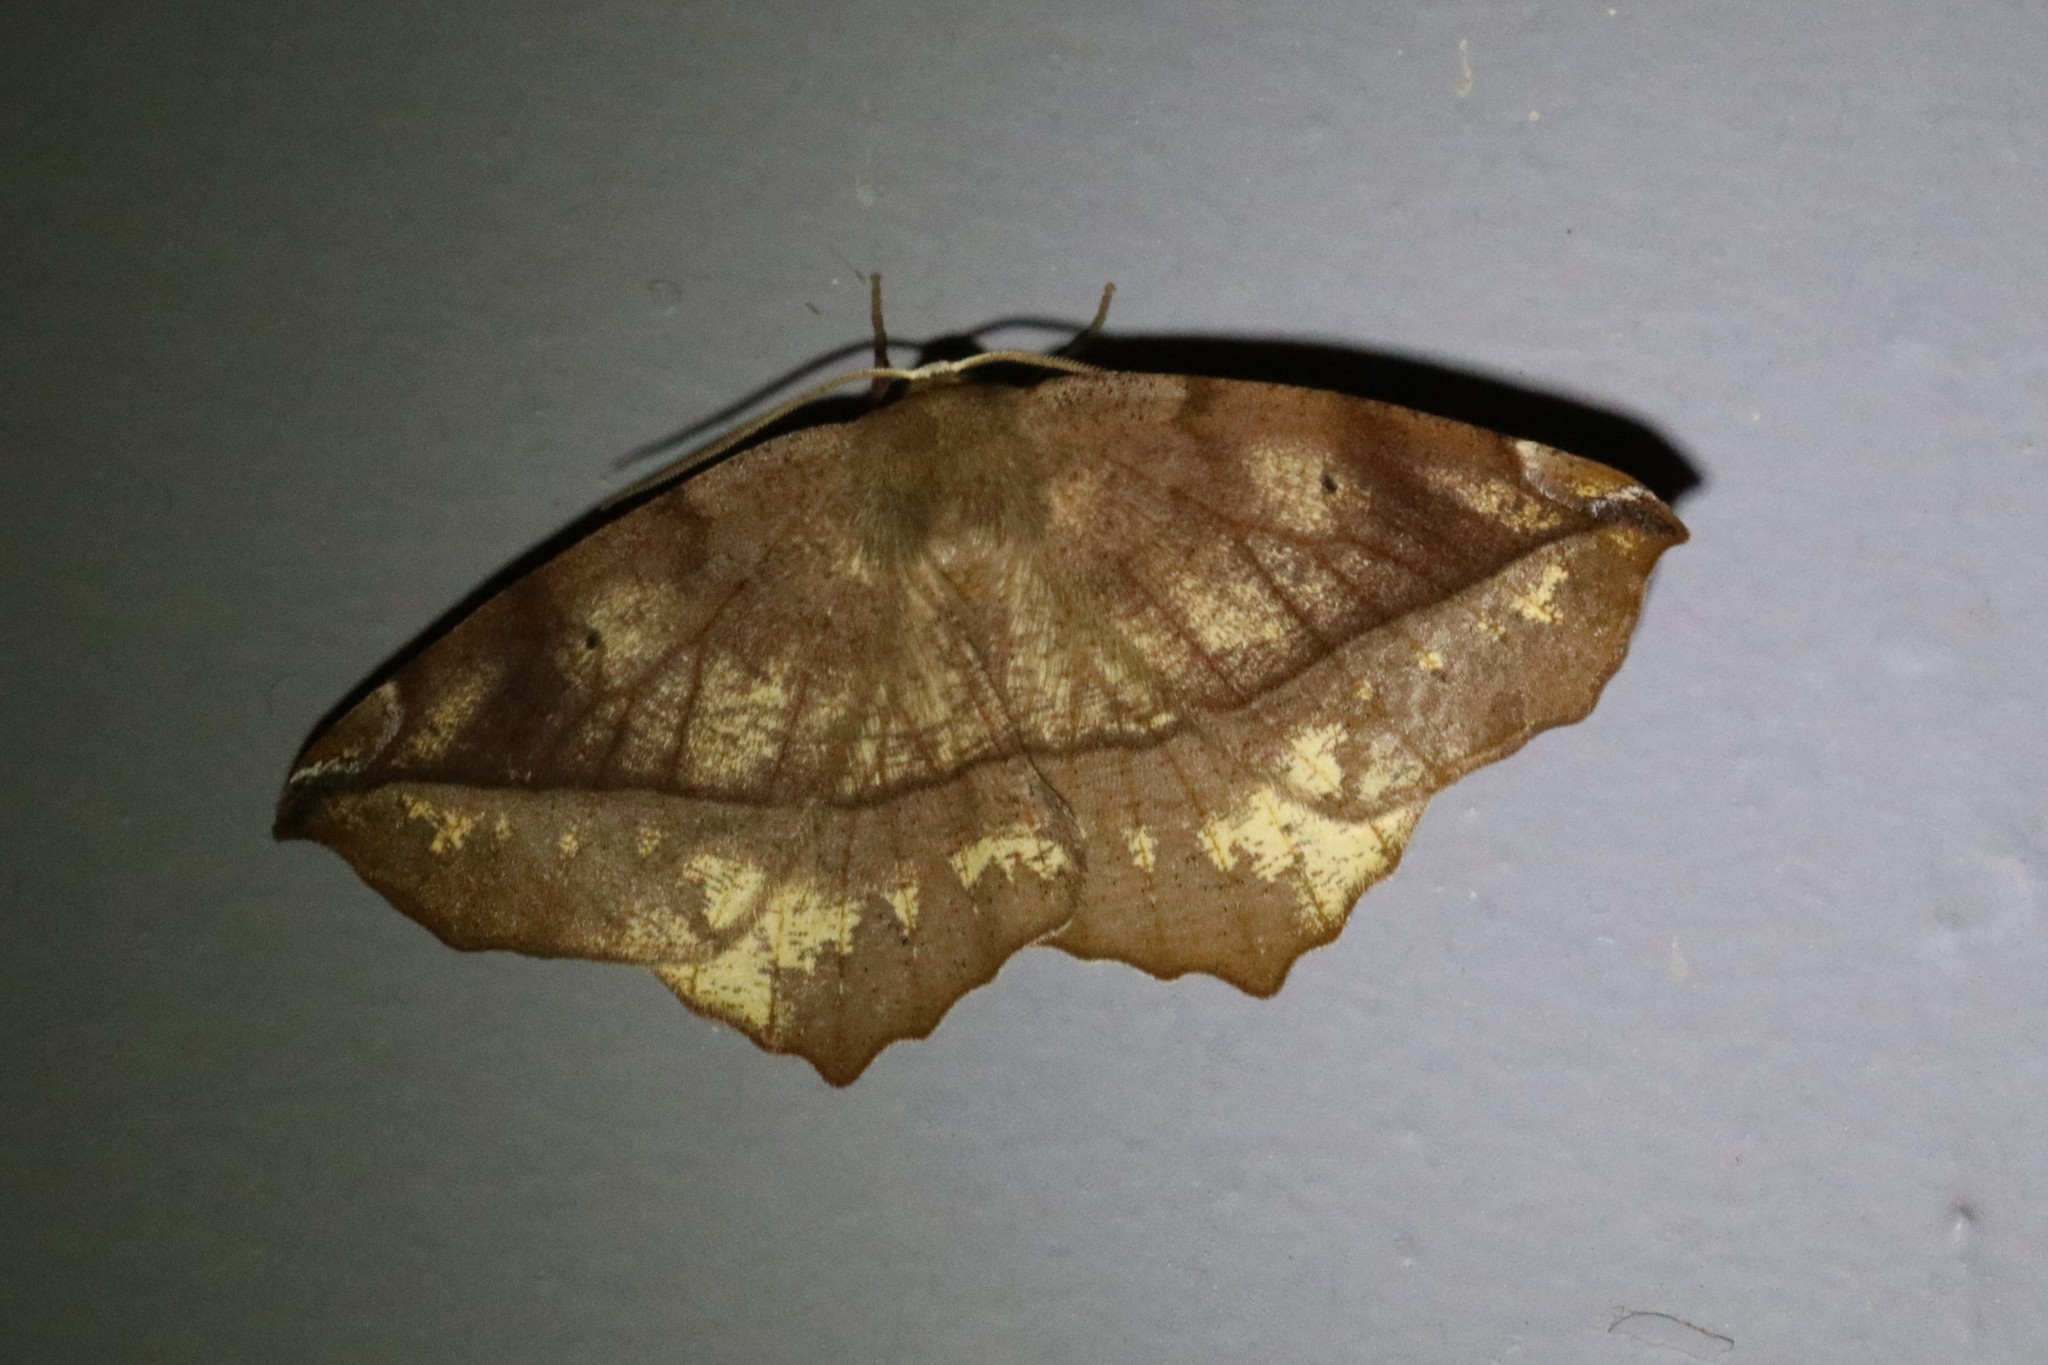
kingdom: Animalia
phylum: Arthropoda
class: Insecta
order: Lepidoptera
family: Geometridae
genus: Eutrapela
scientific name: Eutrapela clemataria
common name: Curved-toothed geometer
